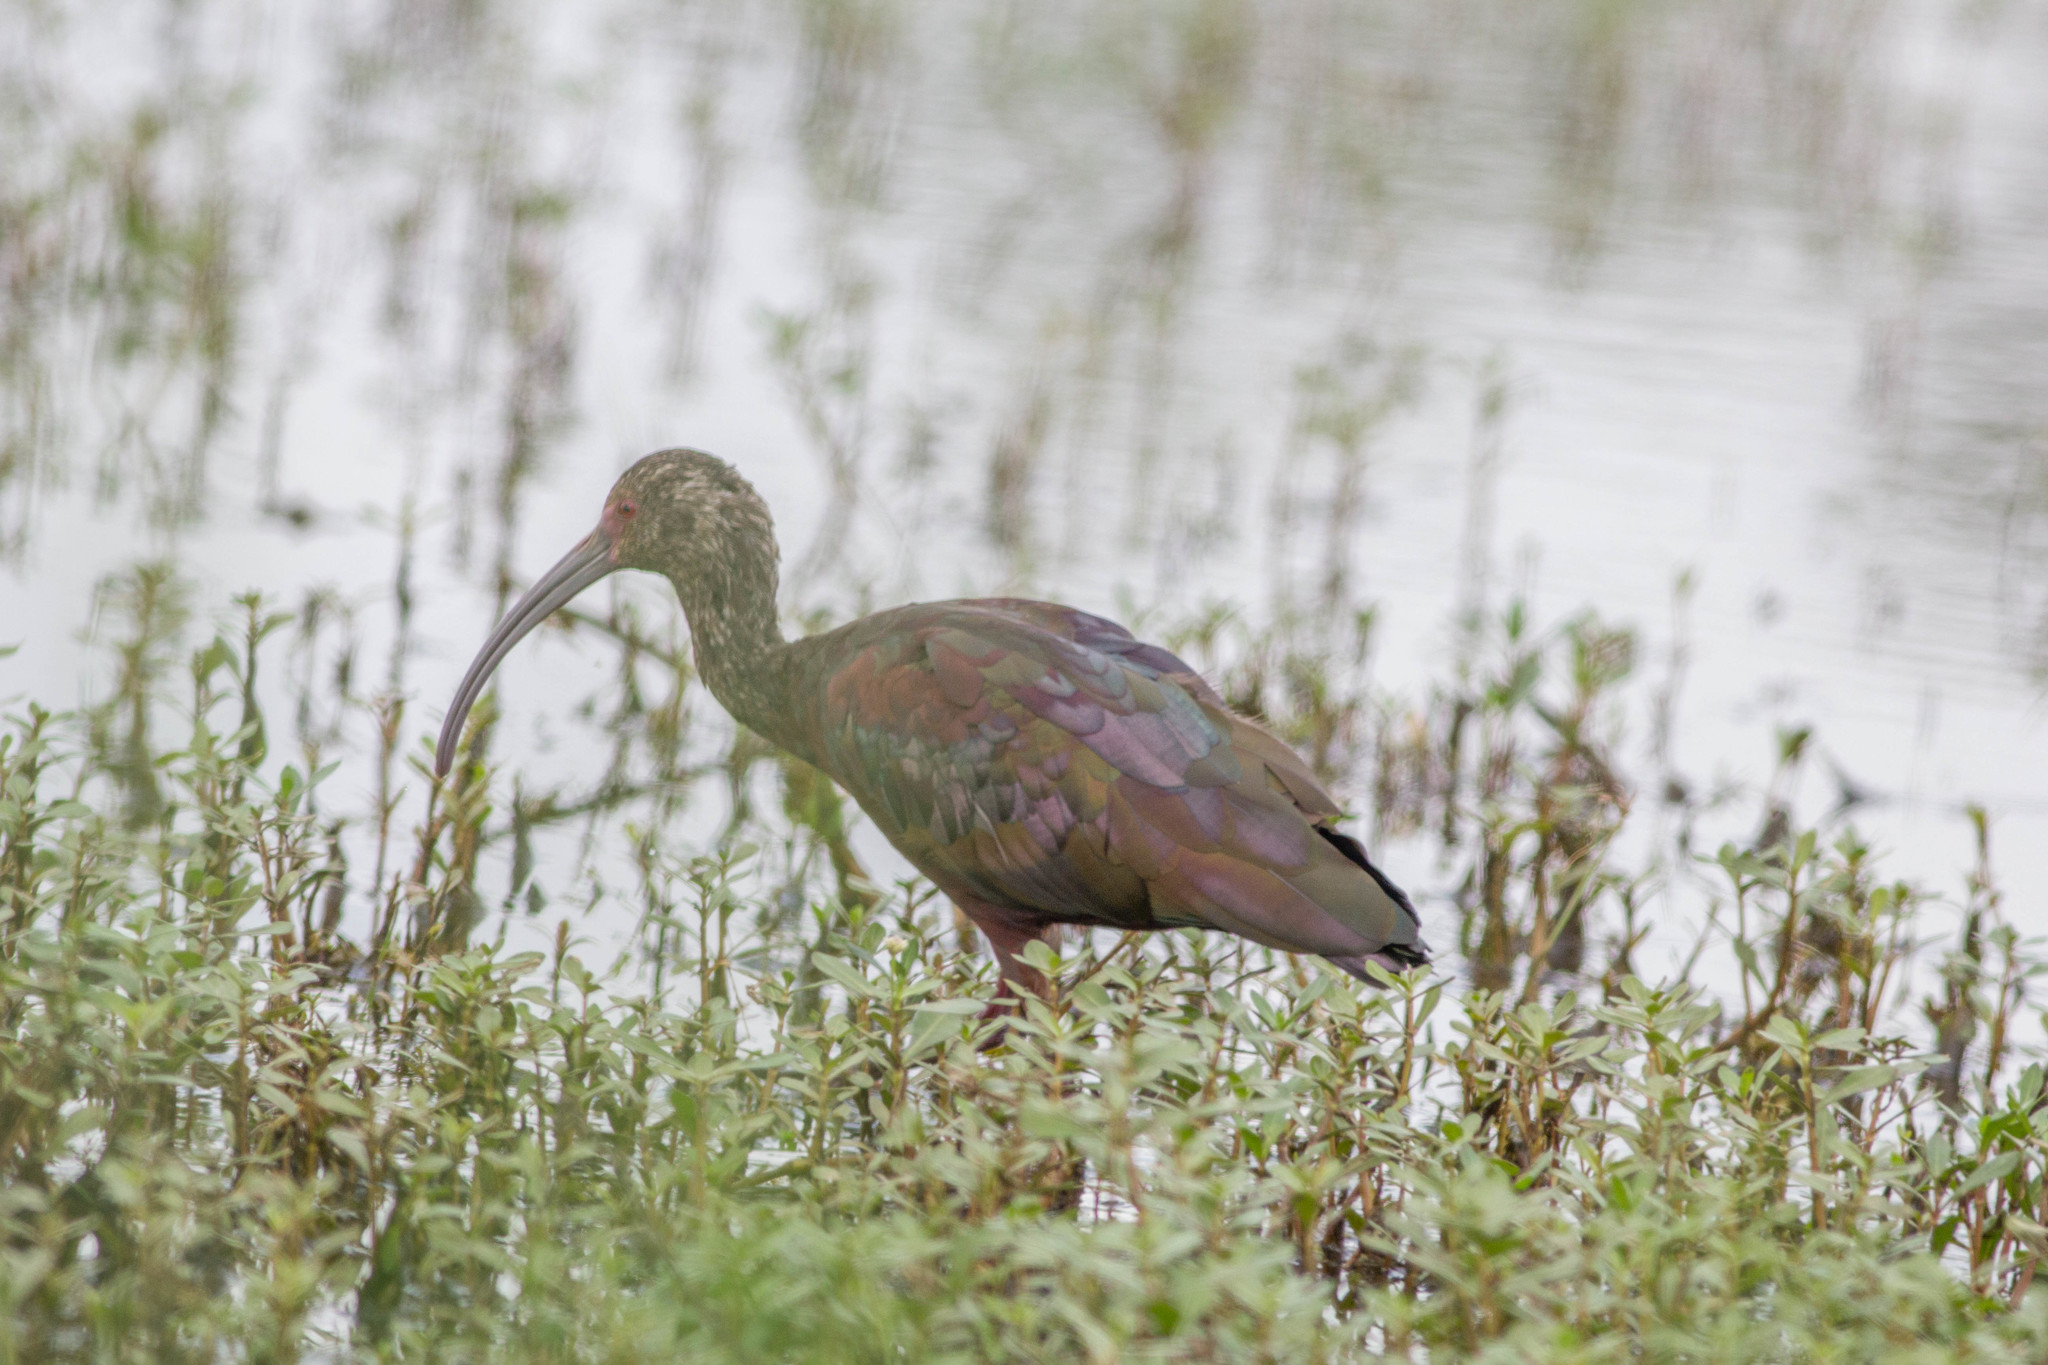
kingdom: Animalia
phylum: Chordata
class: Aves
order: Pelecaniformes
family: Threskiornithidae
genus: Plegadis
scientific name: Plegadis chihi
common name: White-faced ibis
